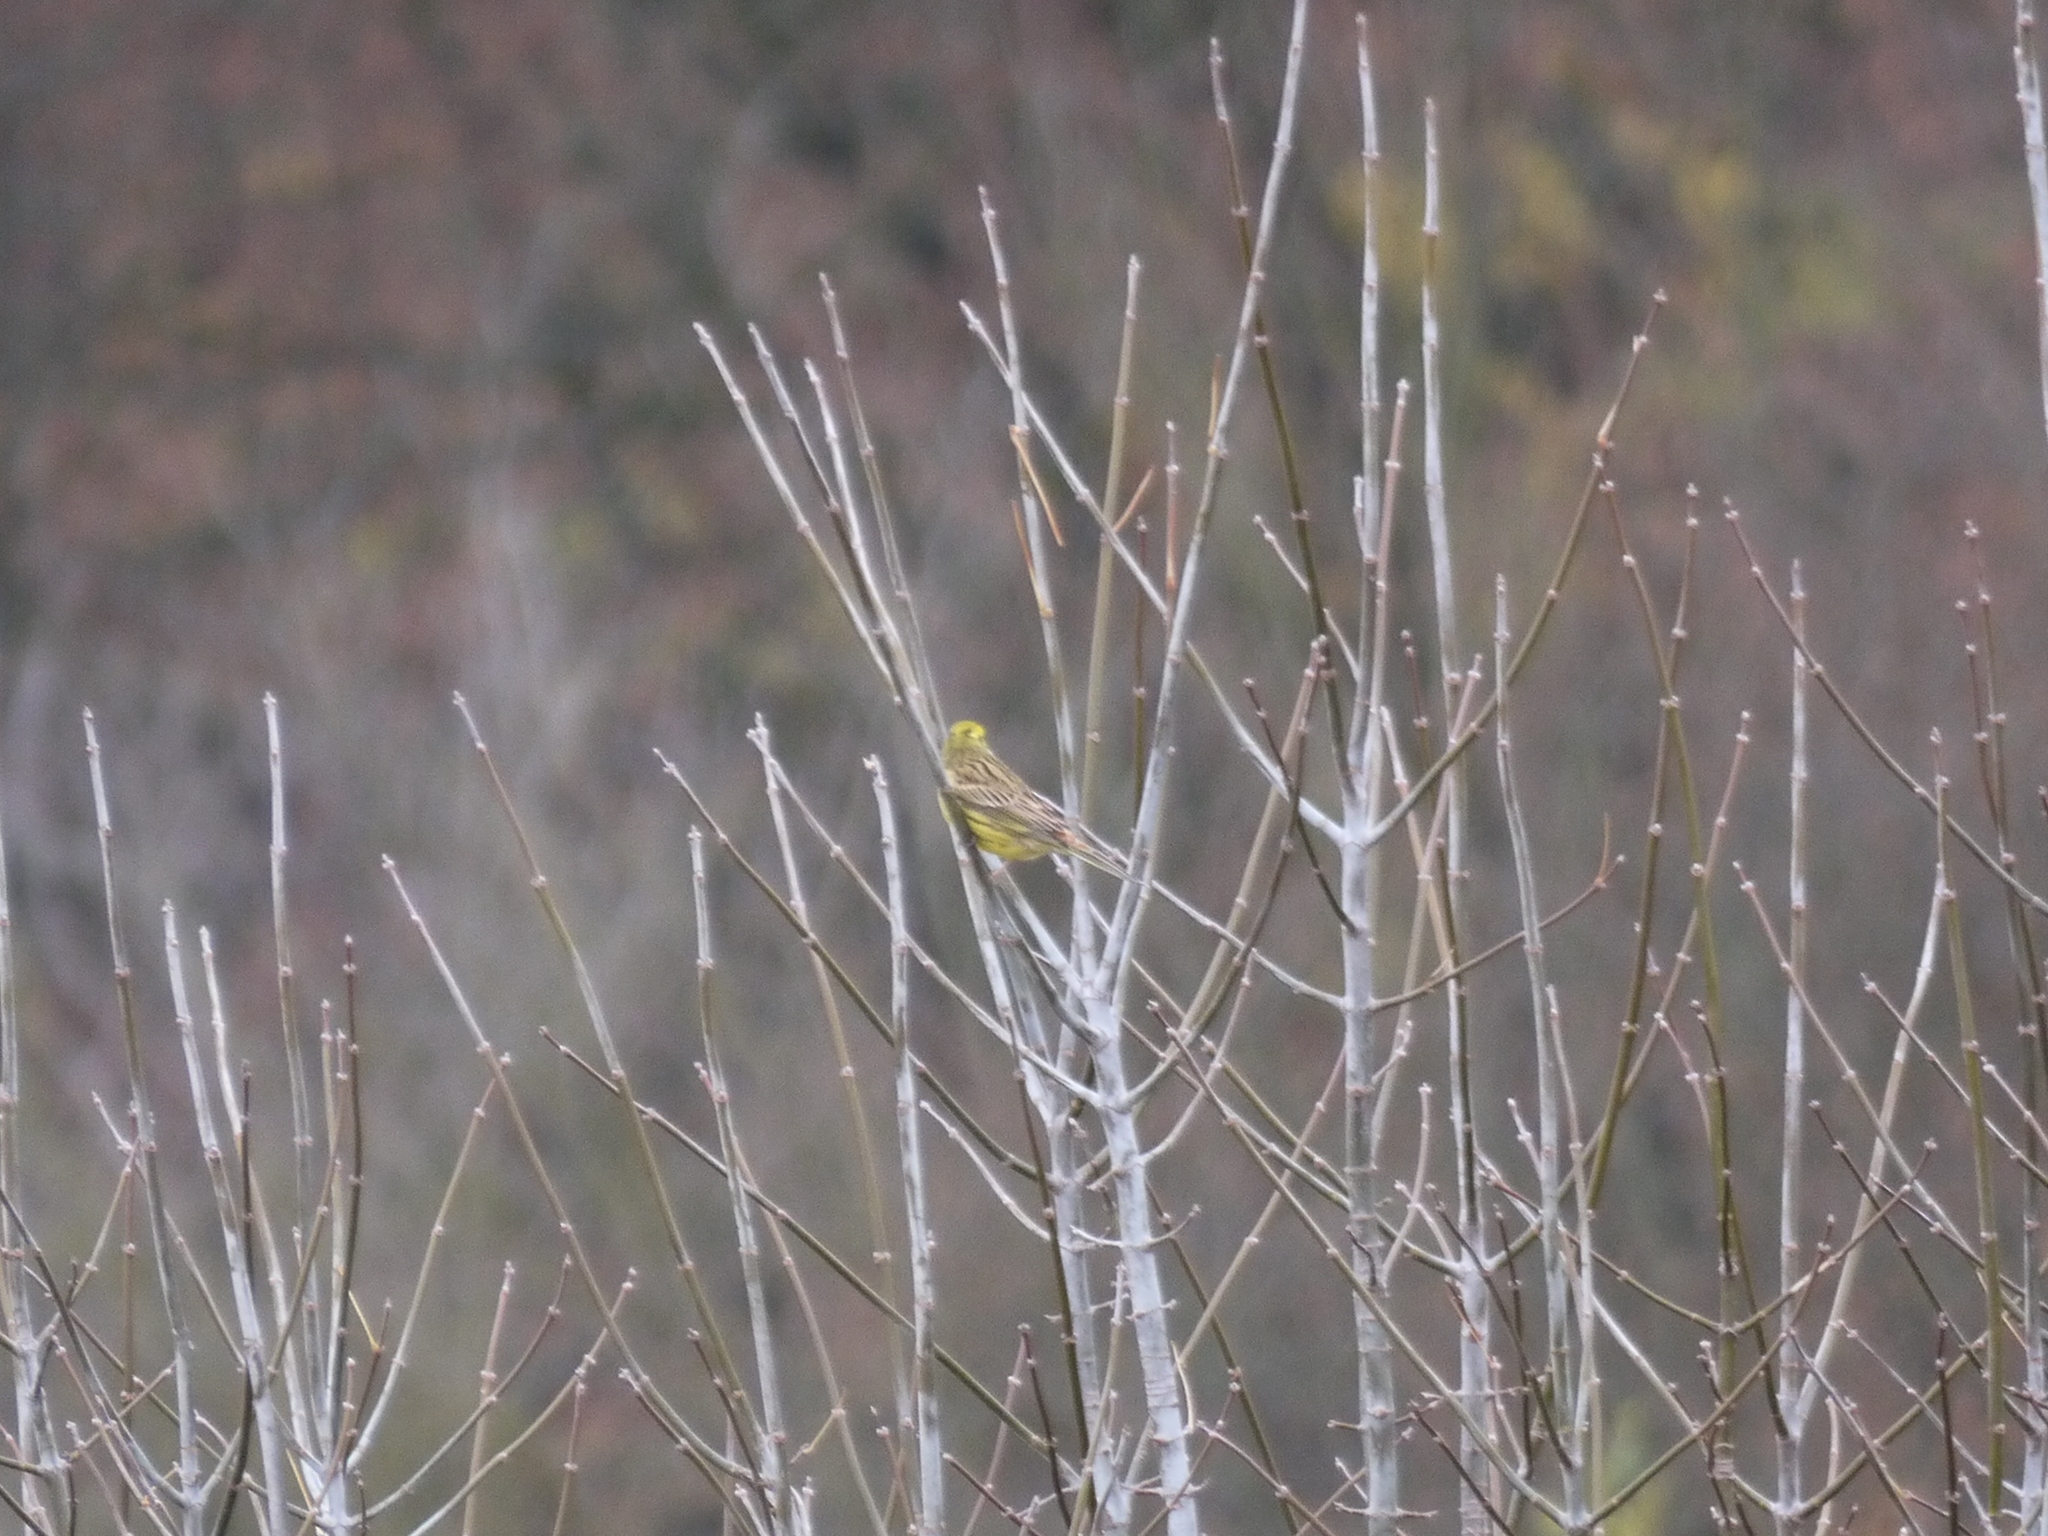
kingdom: Animalia
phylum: Chordata
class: Aves
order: Passeriformes
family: Emberizidae
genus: Emberiza
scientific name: Emberiza citrinella
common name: Yellowhammer
